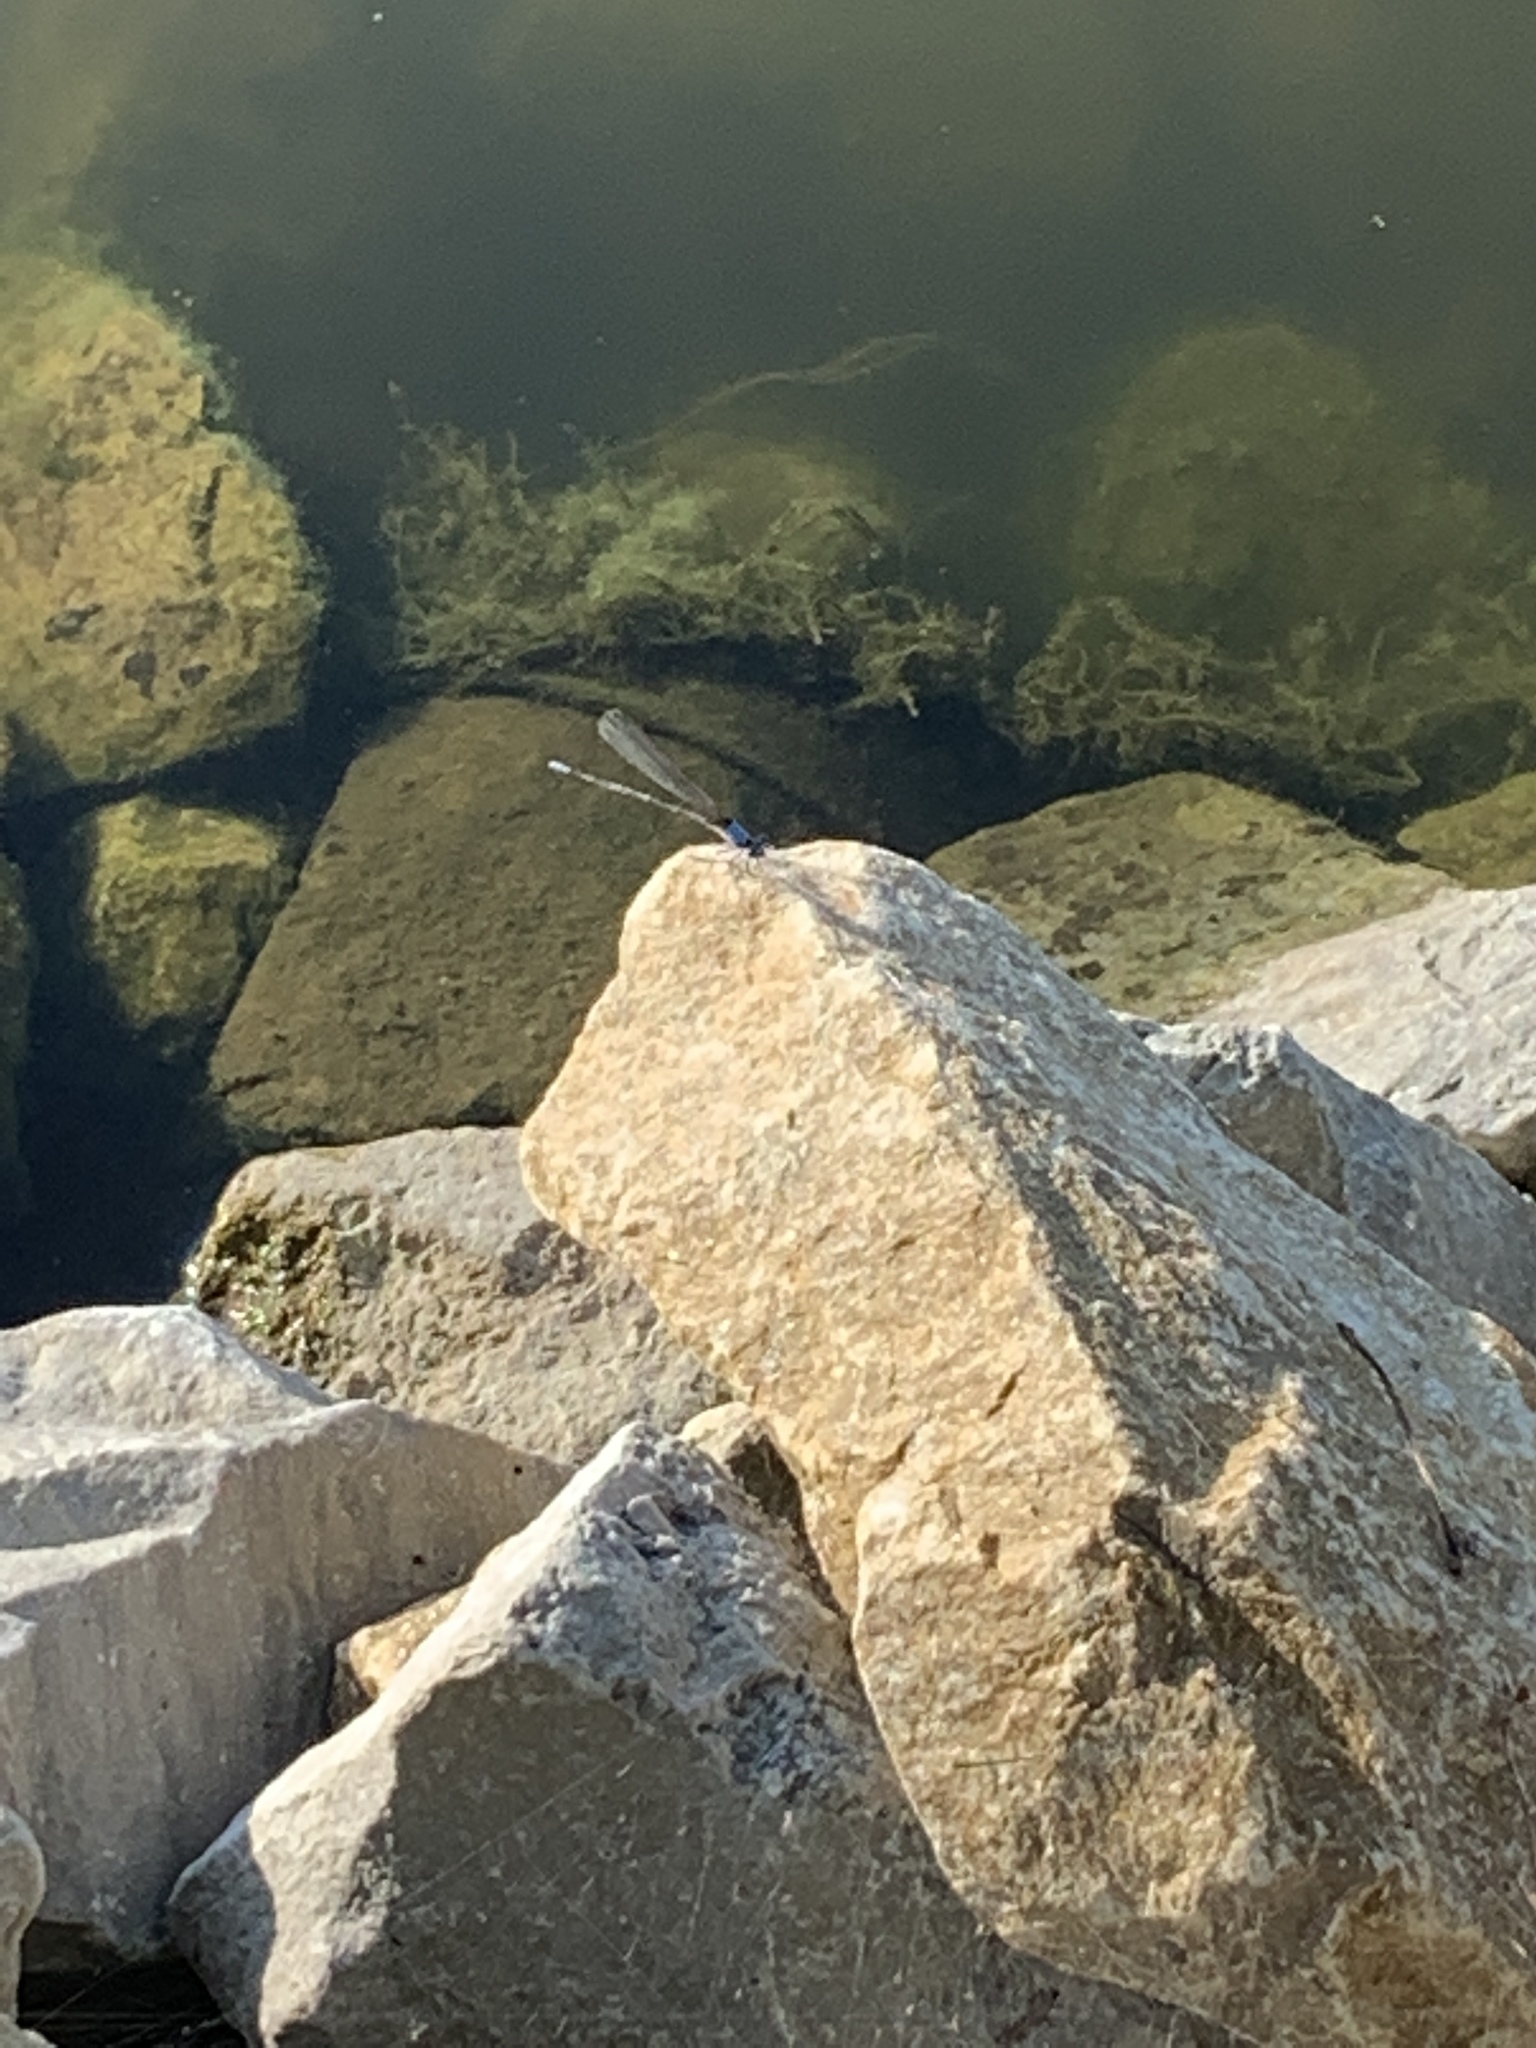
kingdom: Animalia
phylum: Arthropoda
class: Insecta
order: Odonata
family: Coenagrionidae
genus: Argia
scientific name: Argia apicalis
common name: Blue-fronted dancer
